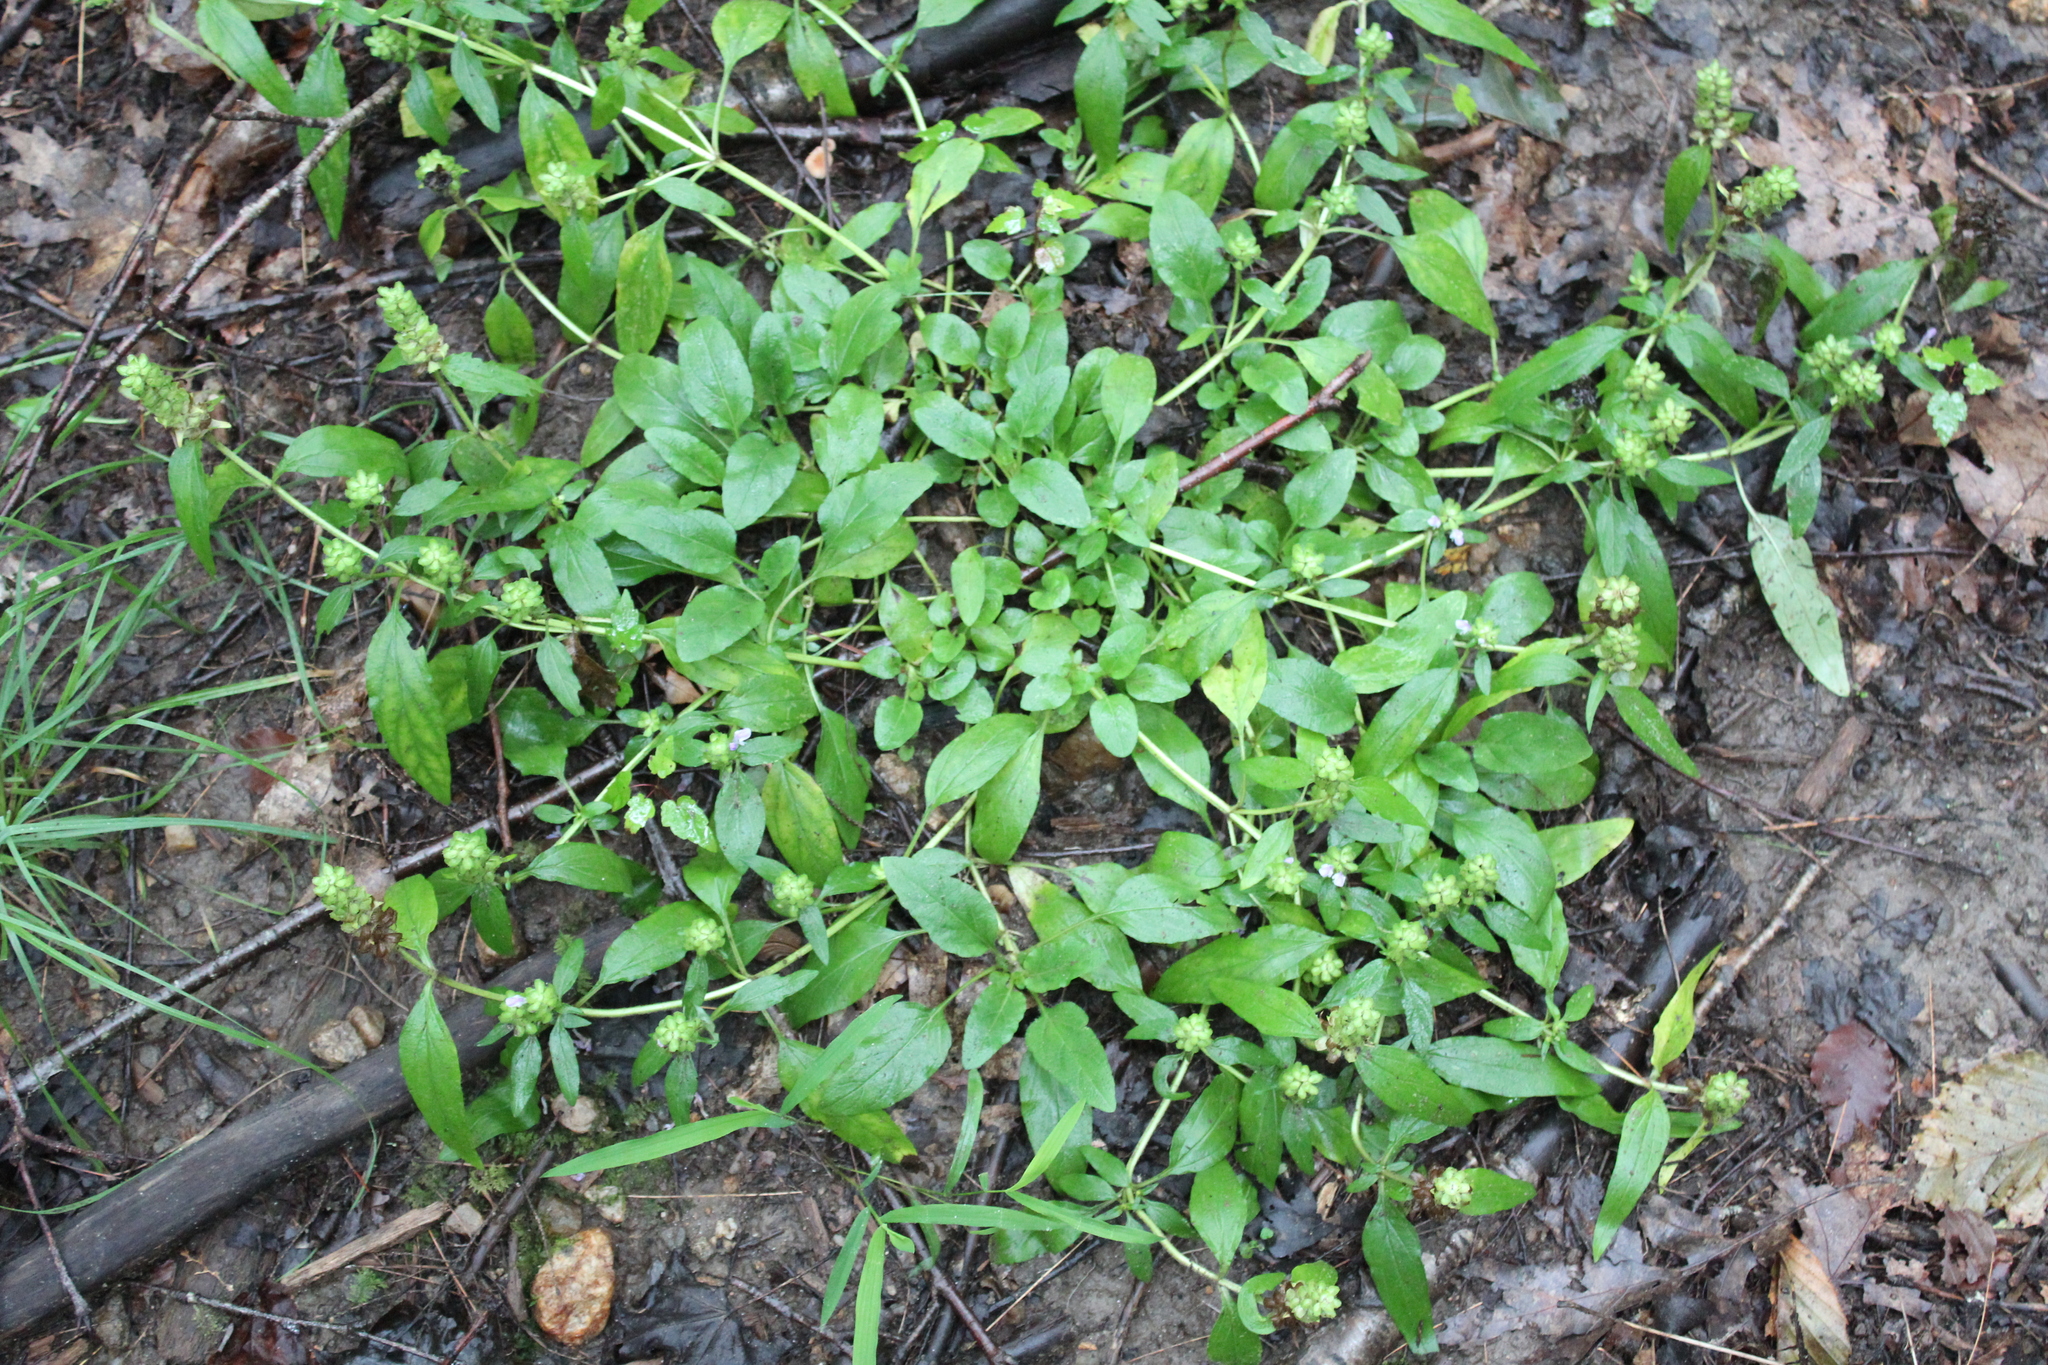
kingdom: Plantae
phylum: Tracheophyta
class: Magnoliopsida
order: Lamiales
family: Lamiaceae
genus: Prunella
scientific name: Prunella vulgaris
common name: Heal-all
